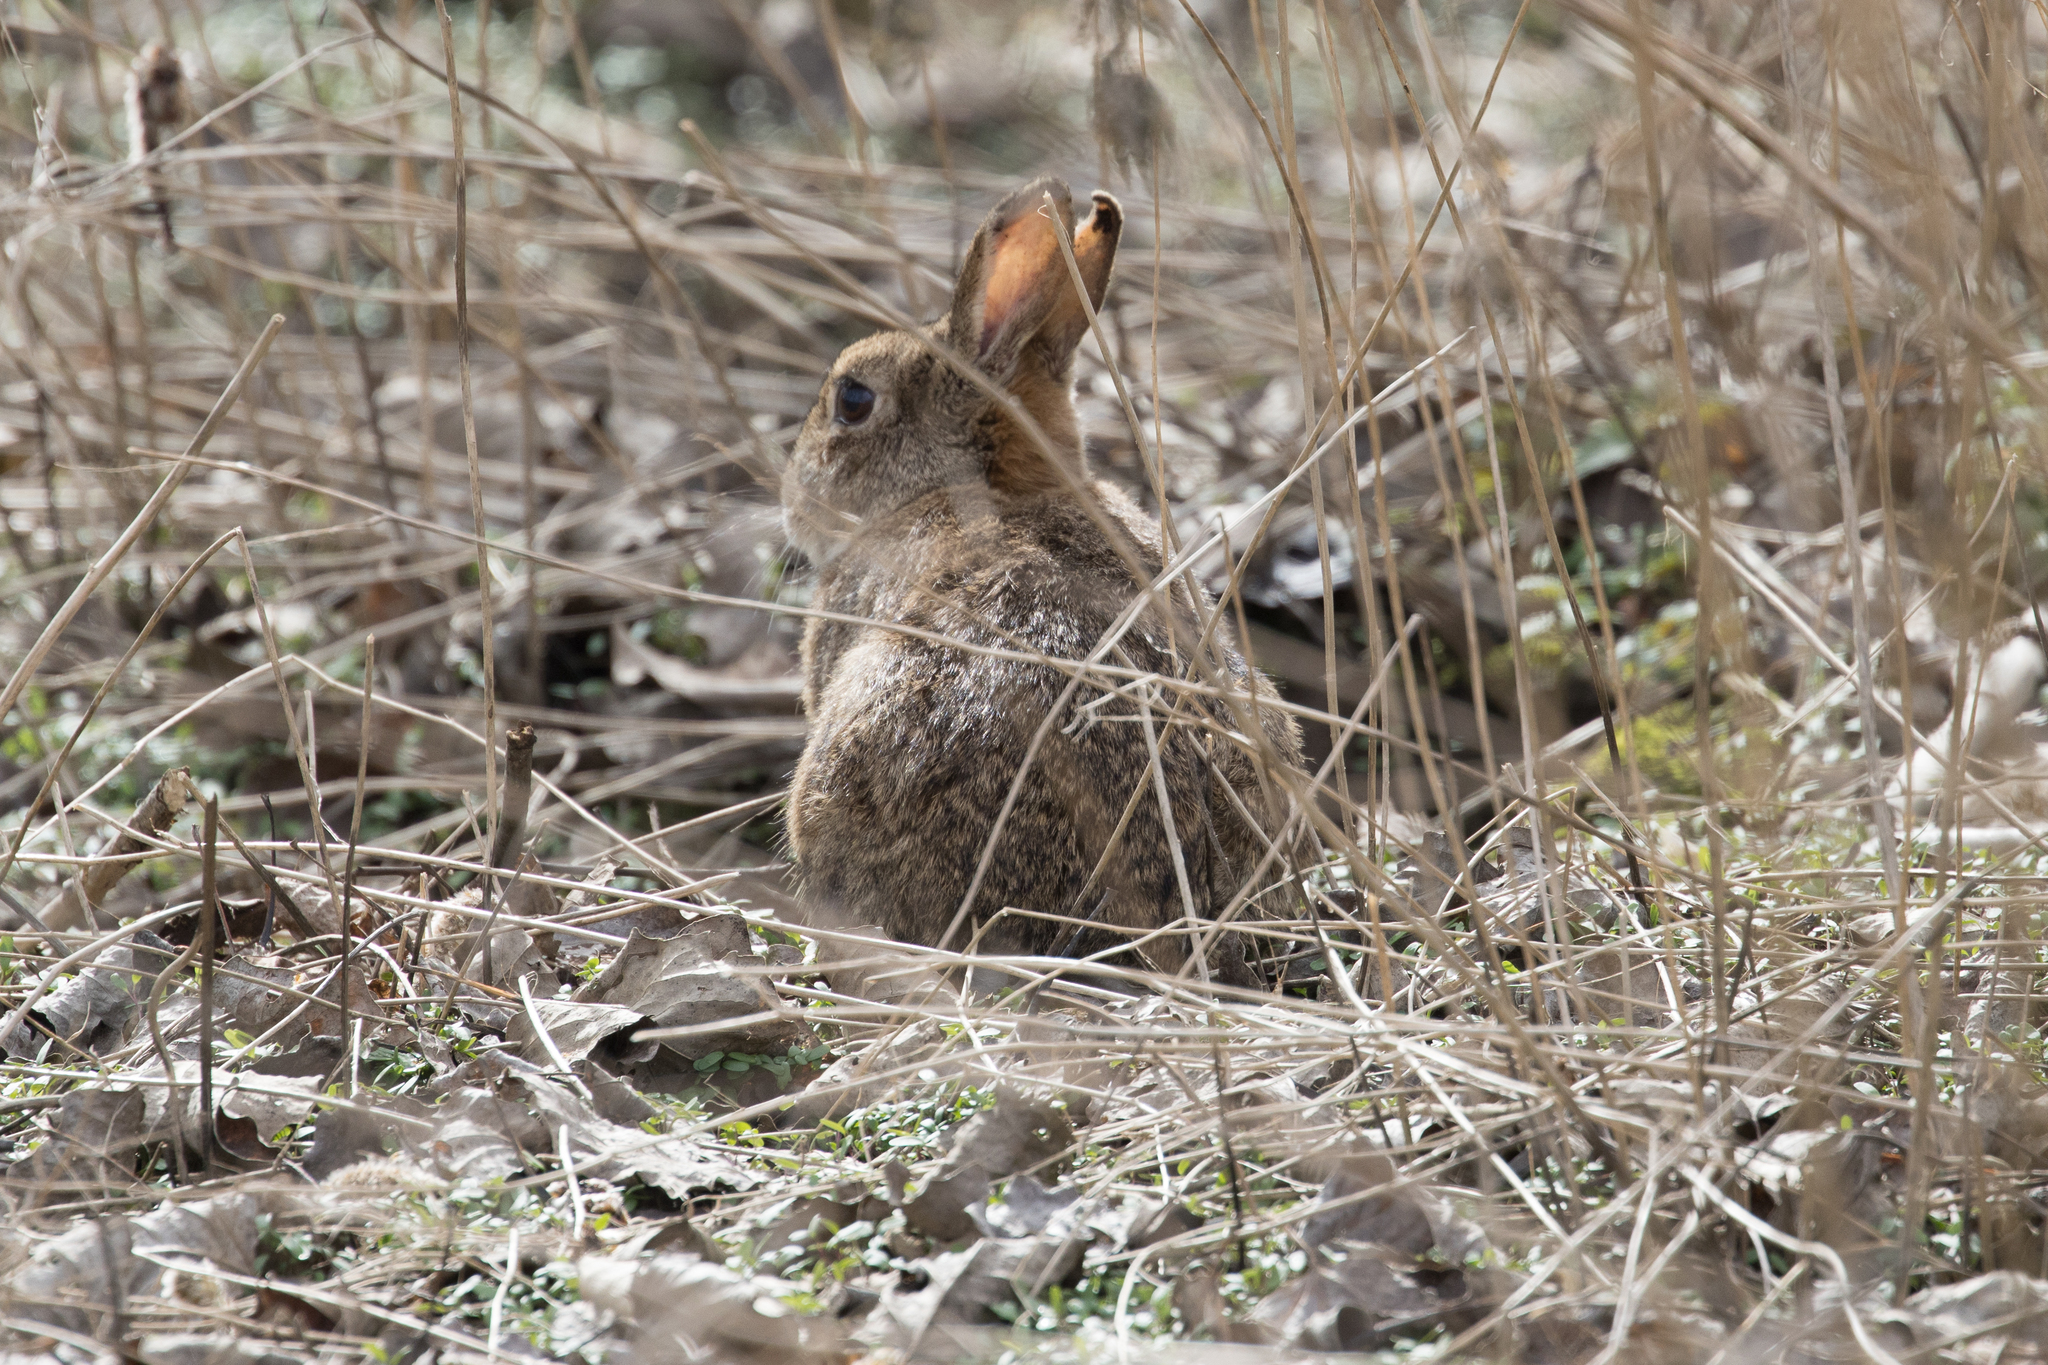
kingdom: Animalia
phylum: Chordata
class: Mammalia
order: Lagomorpha
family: Leporidae
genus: Oryctolagus
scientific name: Oryctolagus cuniculus
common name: European rabbit
